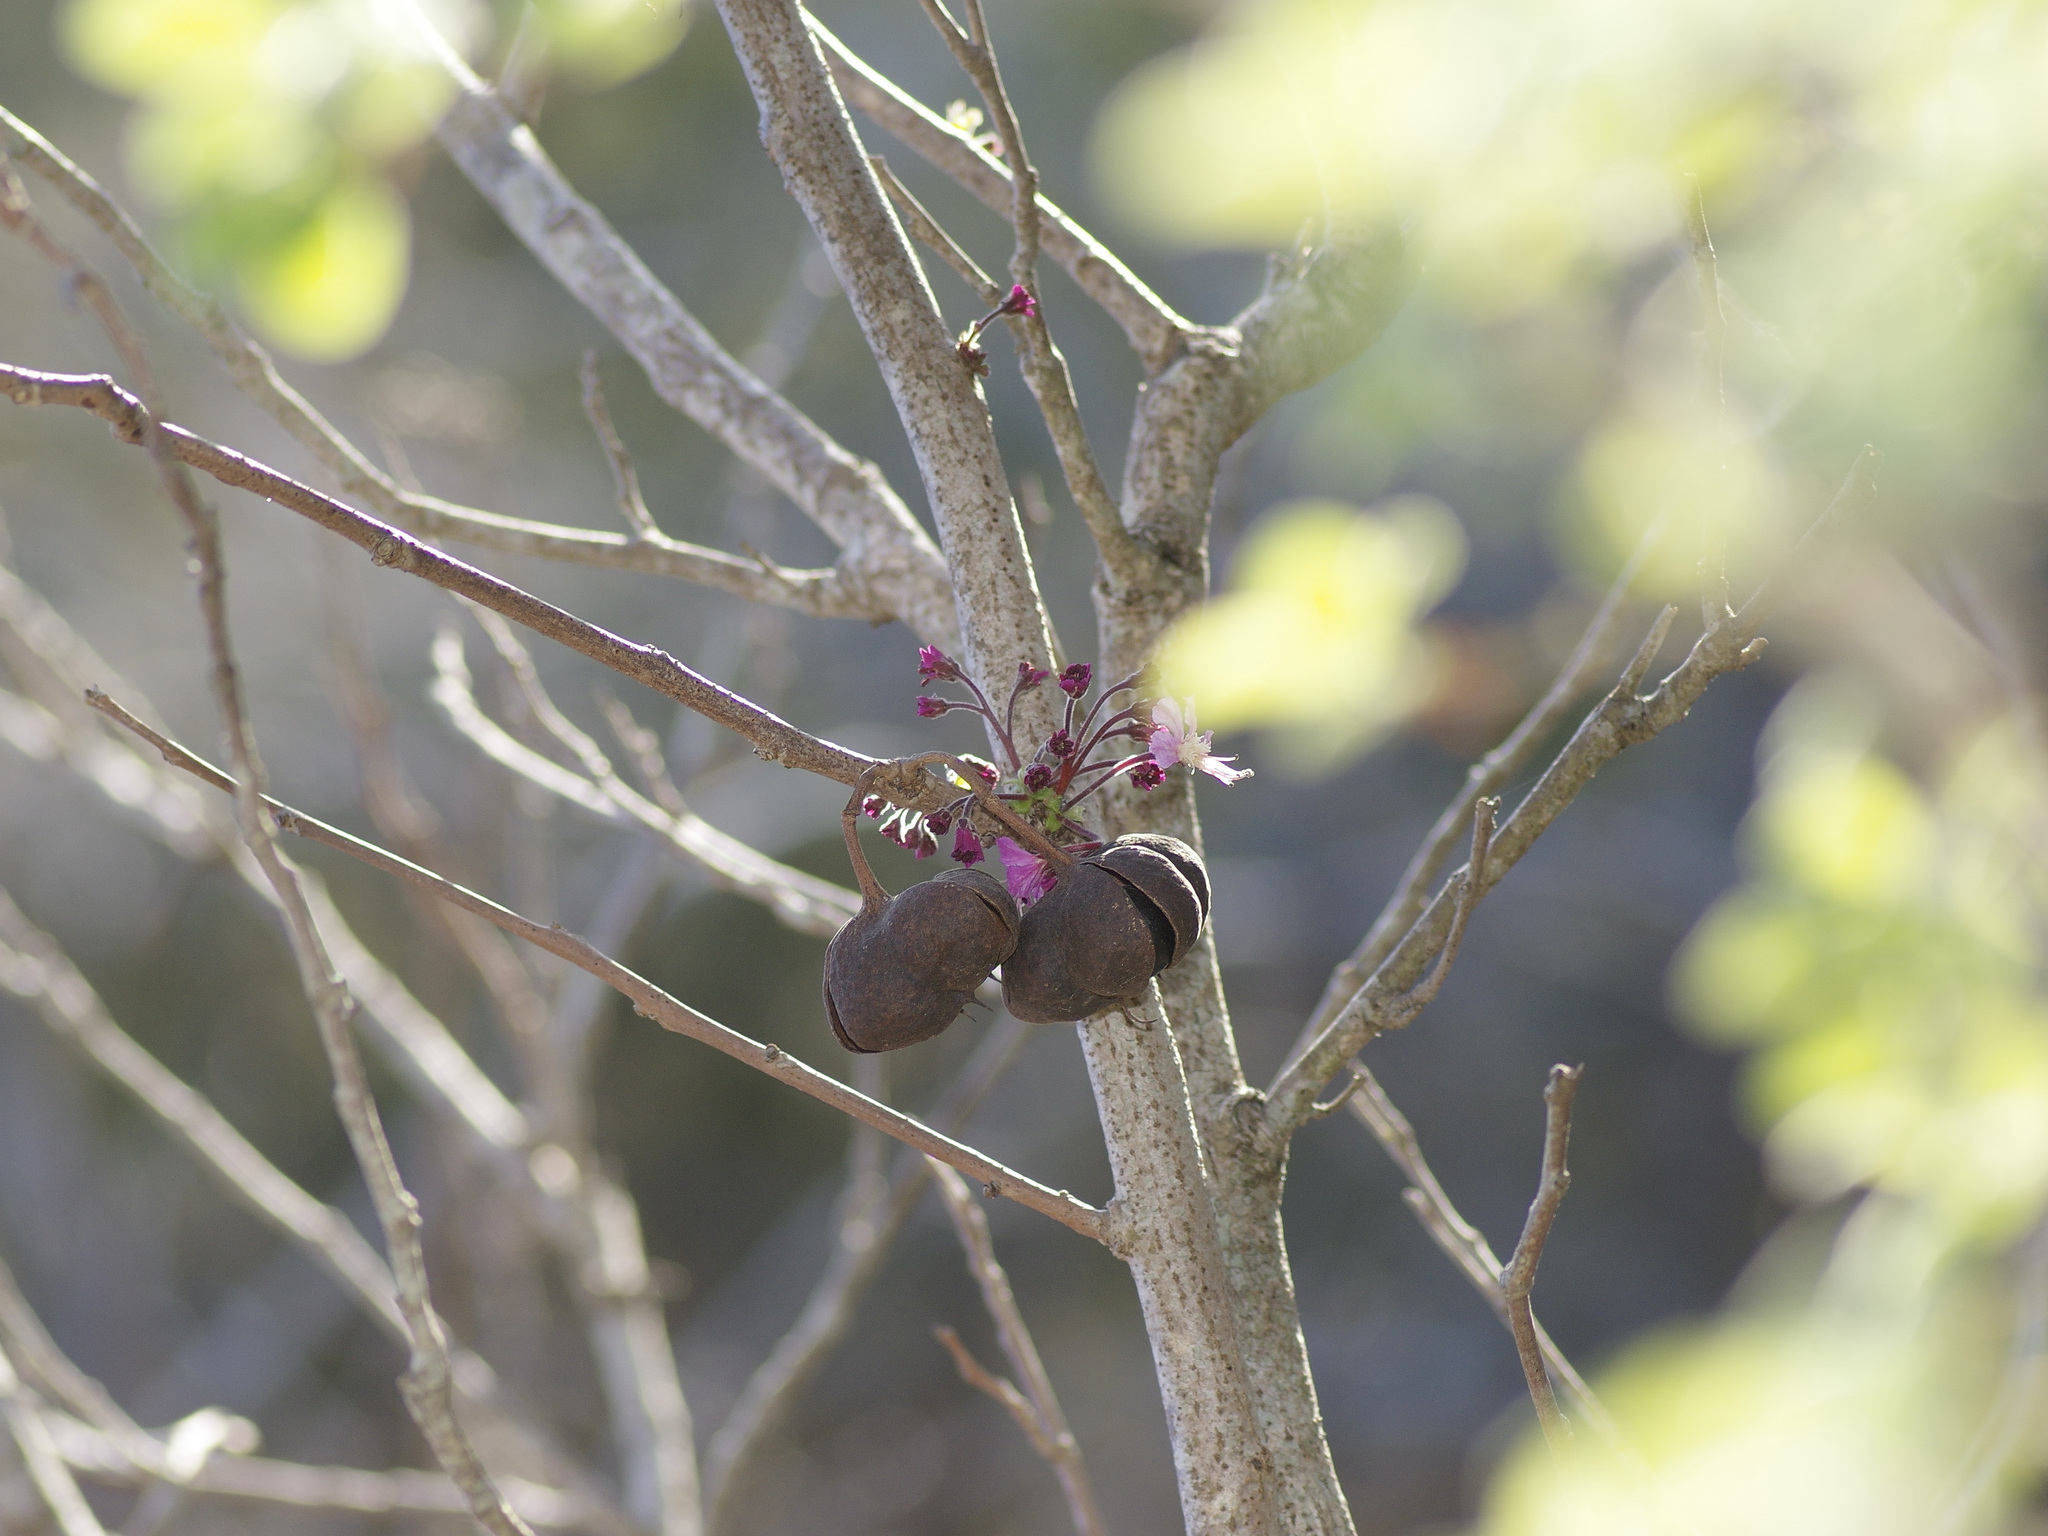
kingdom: Plantae
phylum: Tracheophyta
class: Magnoliopsida
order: Sapindales
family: Sapindaceae
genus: Ungnadia
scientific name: Ungnadia speciosa
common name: Texas-buckeye
